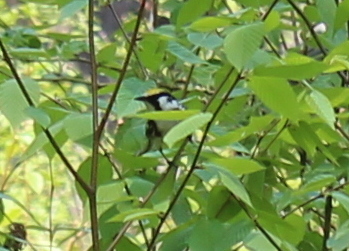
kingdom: Animalia
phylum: Chordata
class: Aves
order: Passeriformes
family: Parulidae
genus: Setophaga
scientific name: Setophaga pensylvanica
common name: Chestnut-sided warbler
